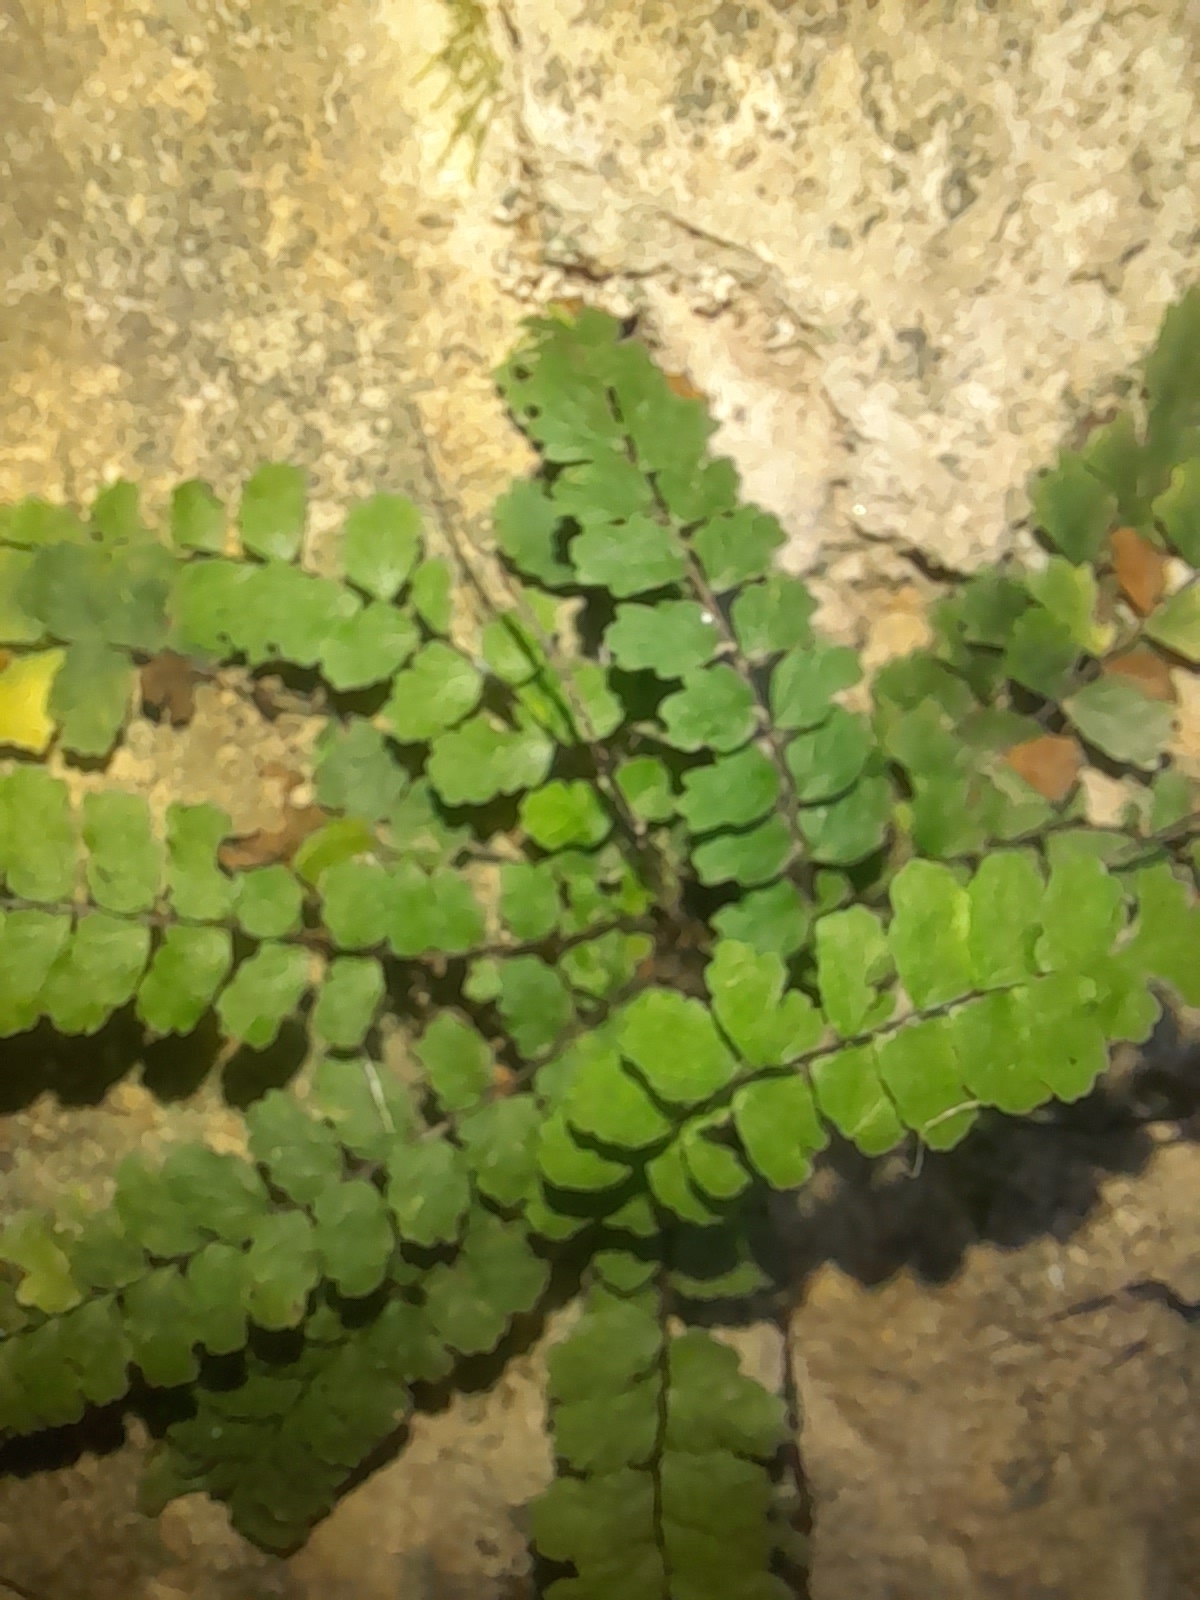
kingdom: Plantae
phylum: Tracheophyta
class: Polypodiopsida
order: Polypodiales
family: Aspleniaceae
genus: Asplenium
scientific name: Asplenium trichomanes
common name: Maidenhair spleenwort
